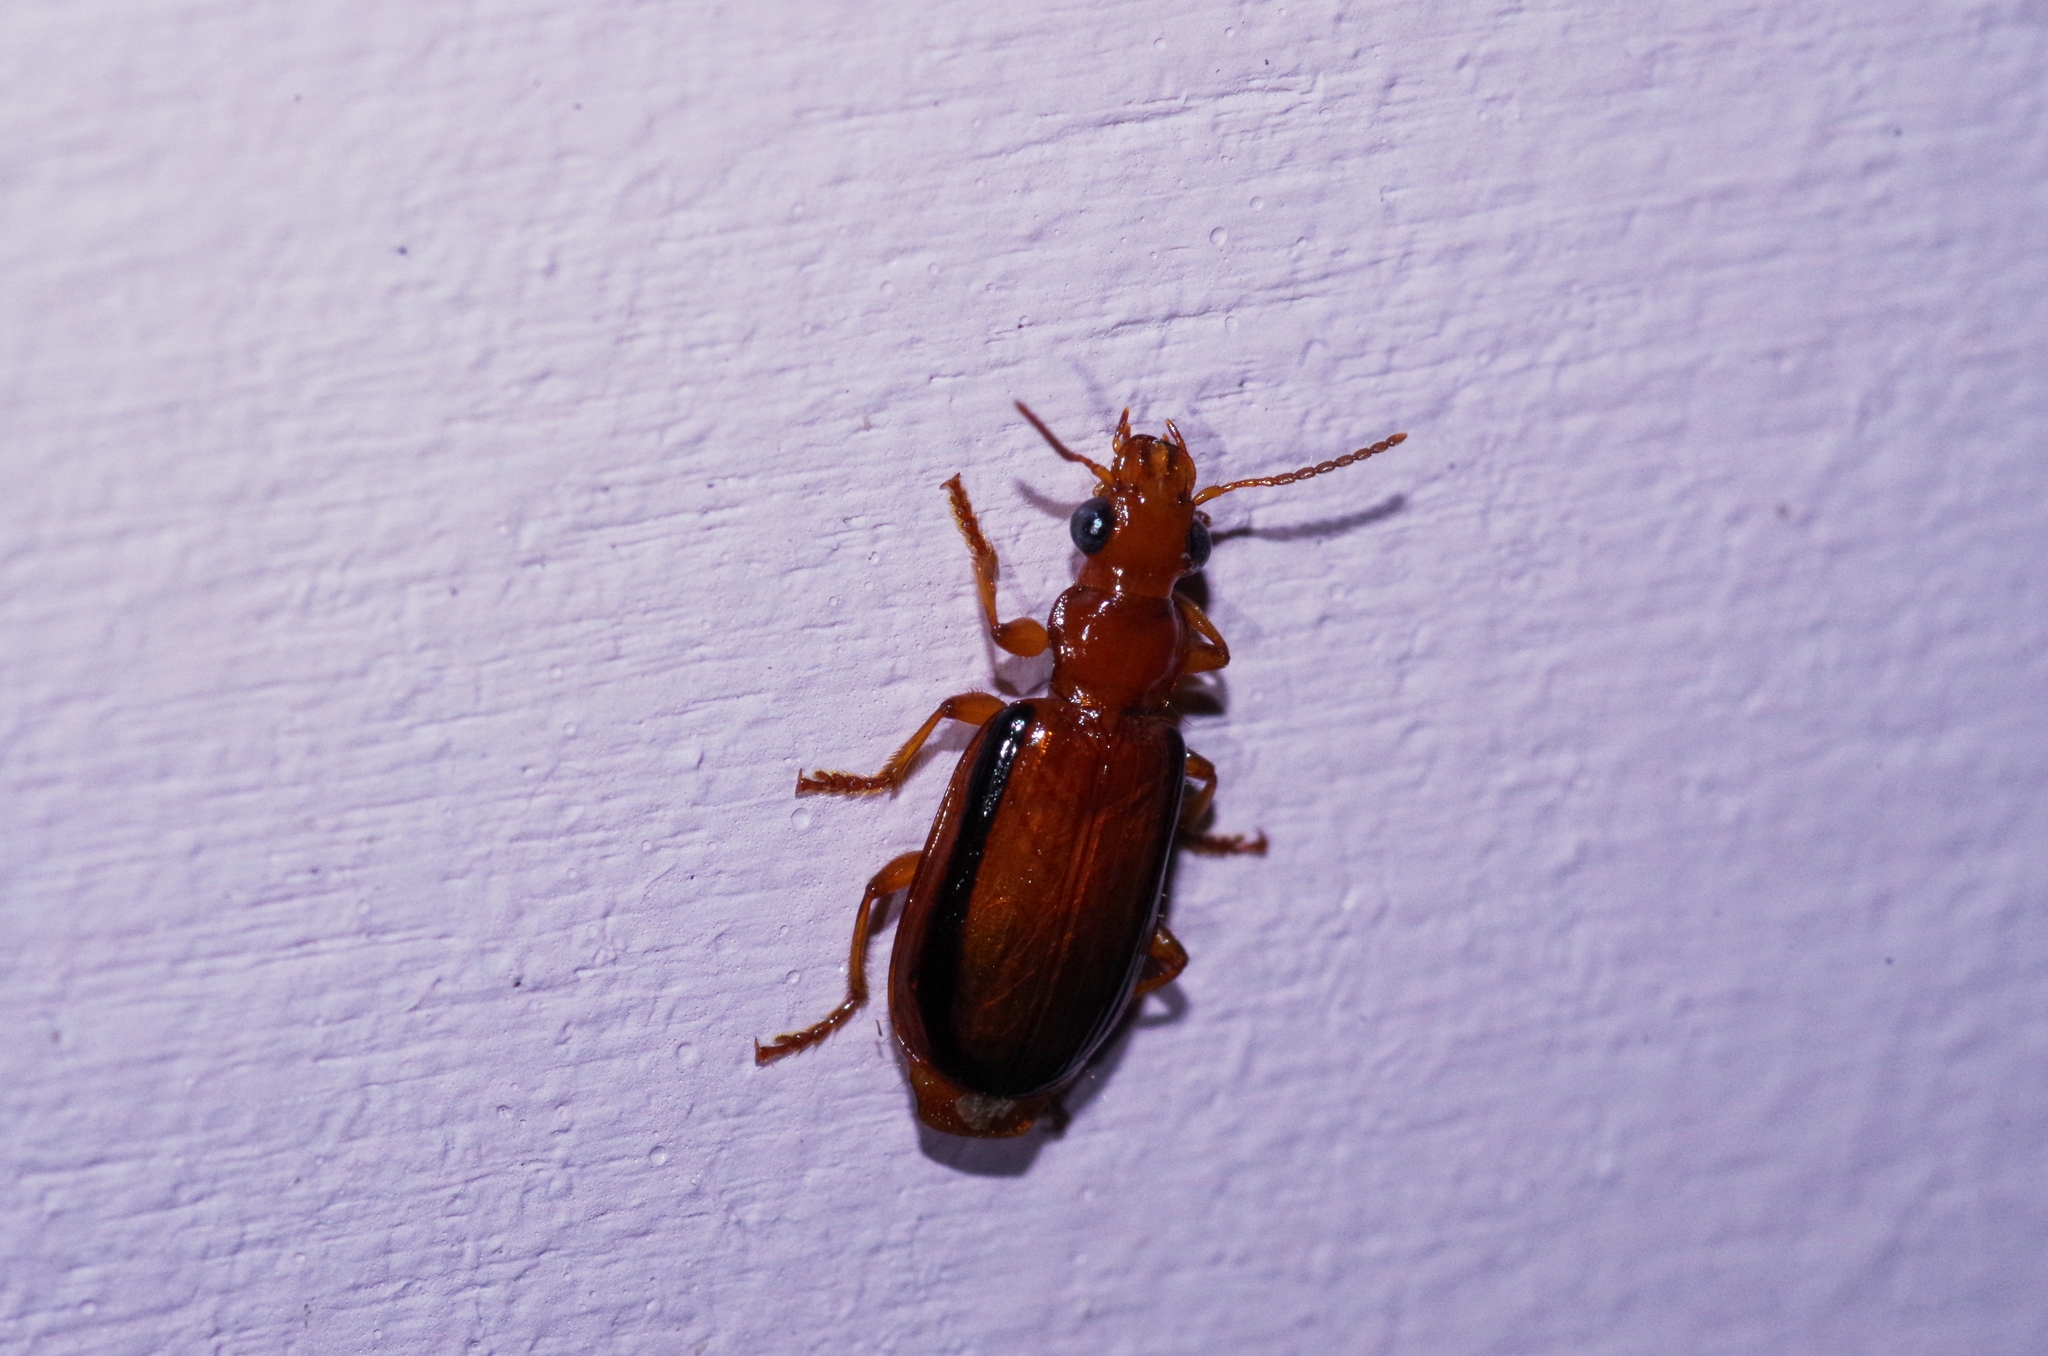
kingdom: Animalia
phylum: Arthropoda
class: Insecta
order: Coleoptera
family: Carabidae
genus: Parena
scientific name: Parena nigrolineata
